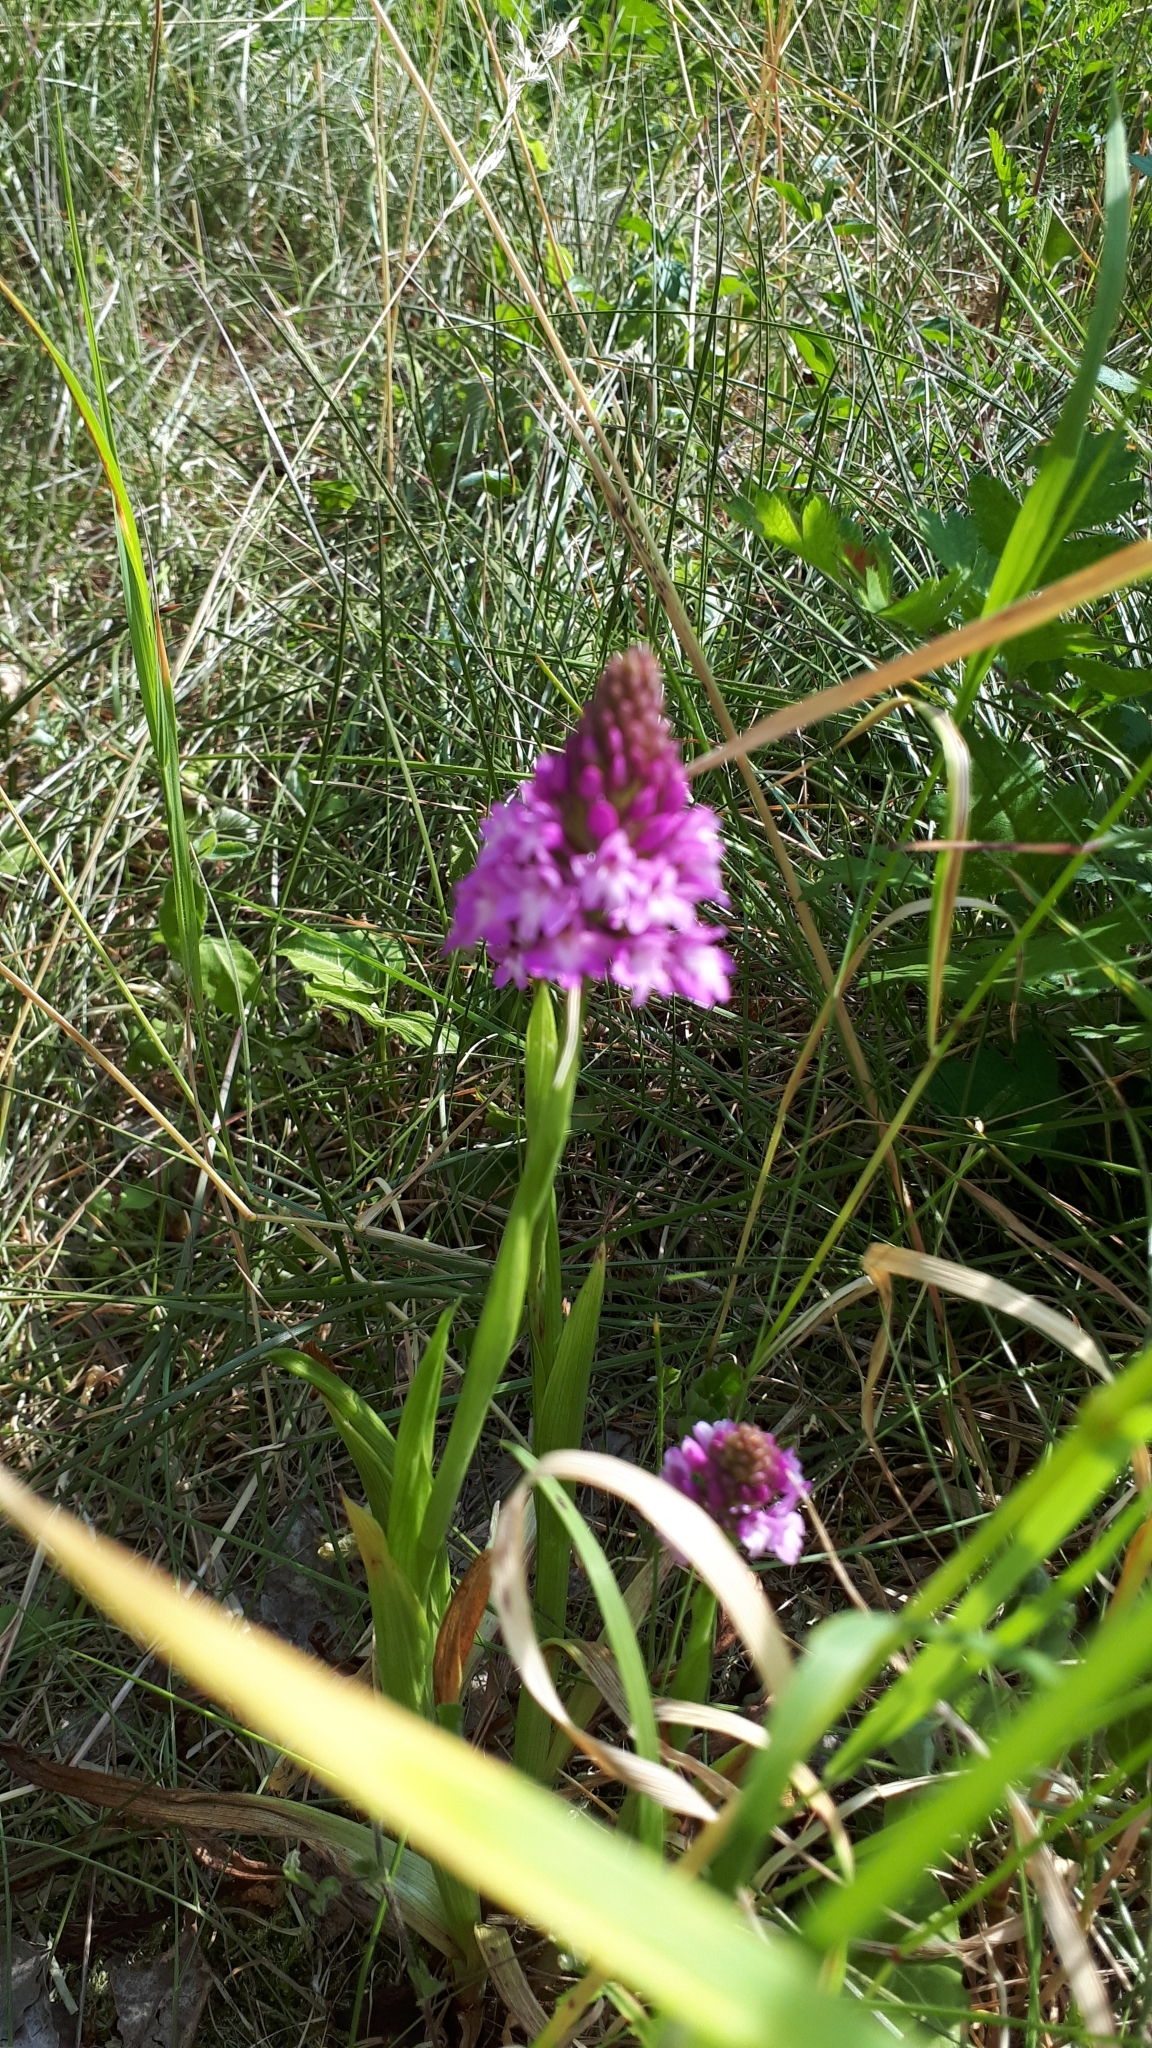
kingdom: Plantae
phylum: Tracheophyta
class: Liliopsida
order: Asparagales
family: Orchidaceae
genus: Anacamptis
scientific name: Anacamptis pyramidalis
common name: Pyramidal orchid
